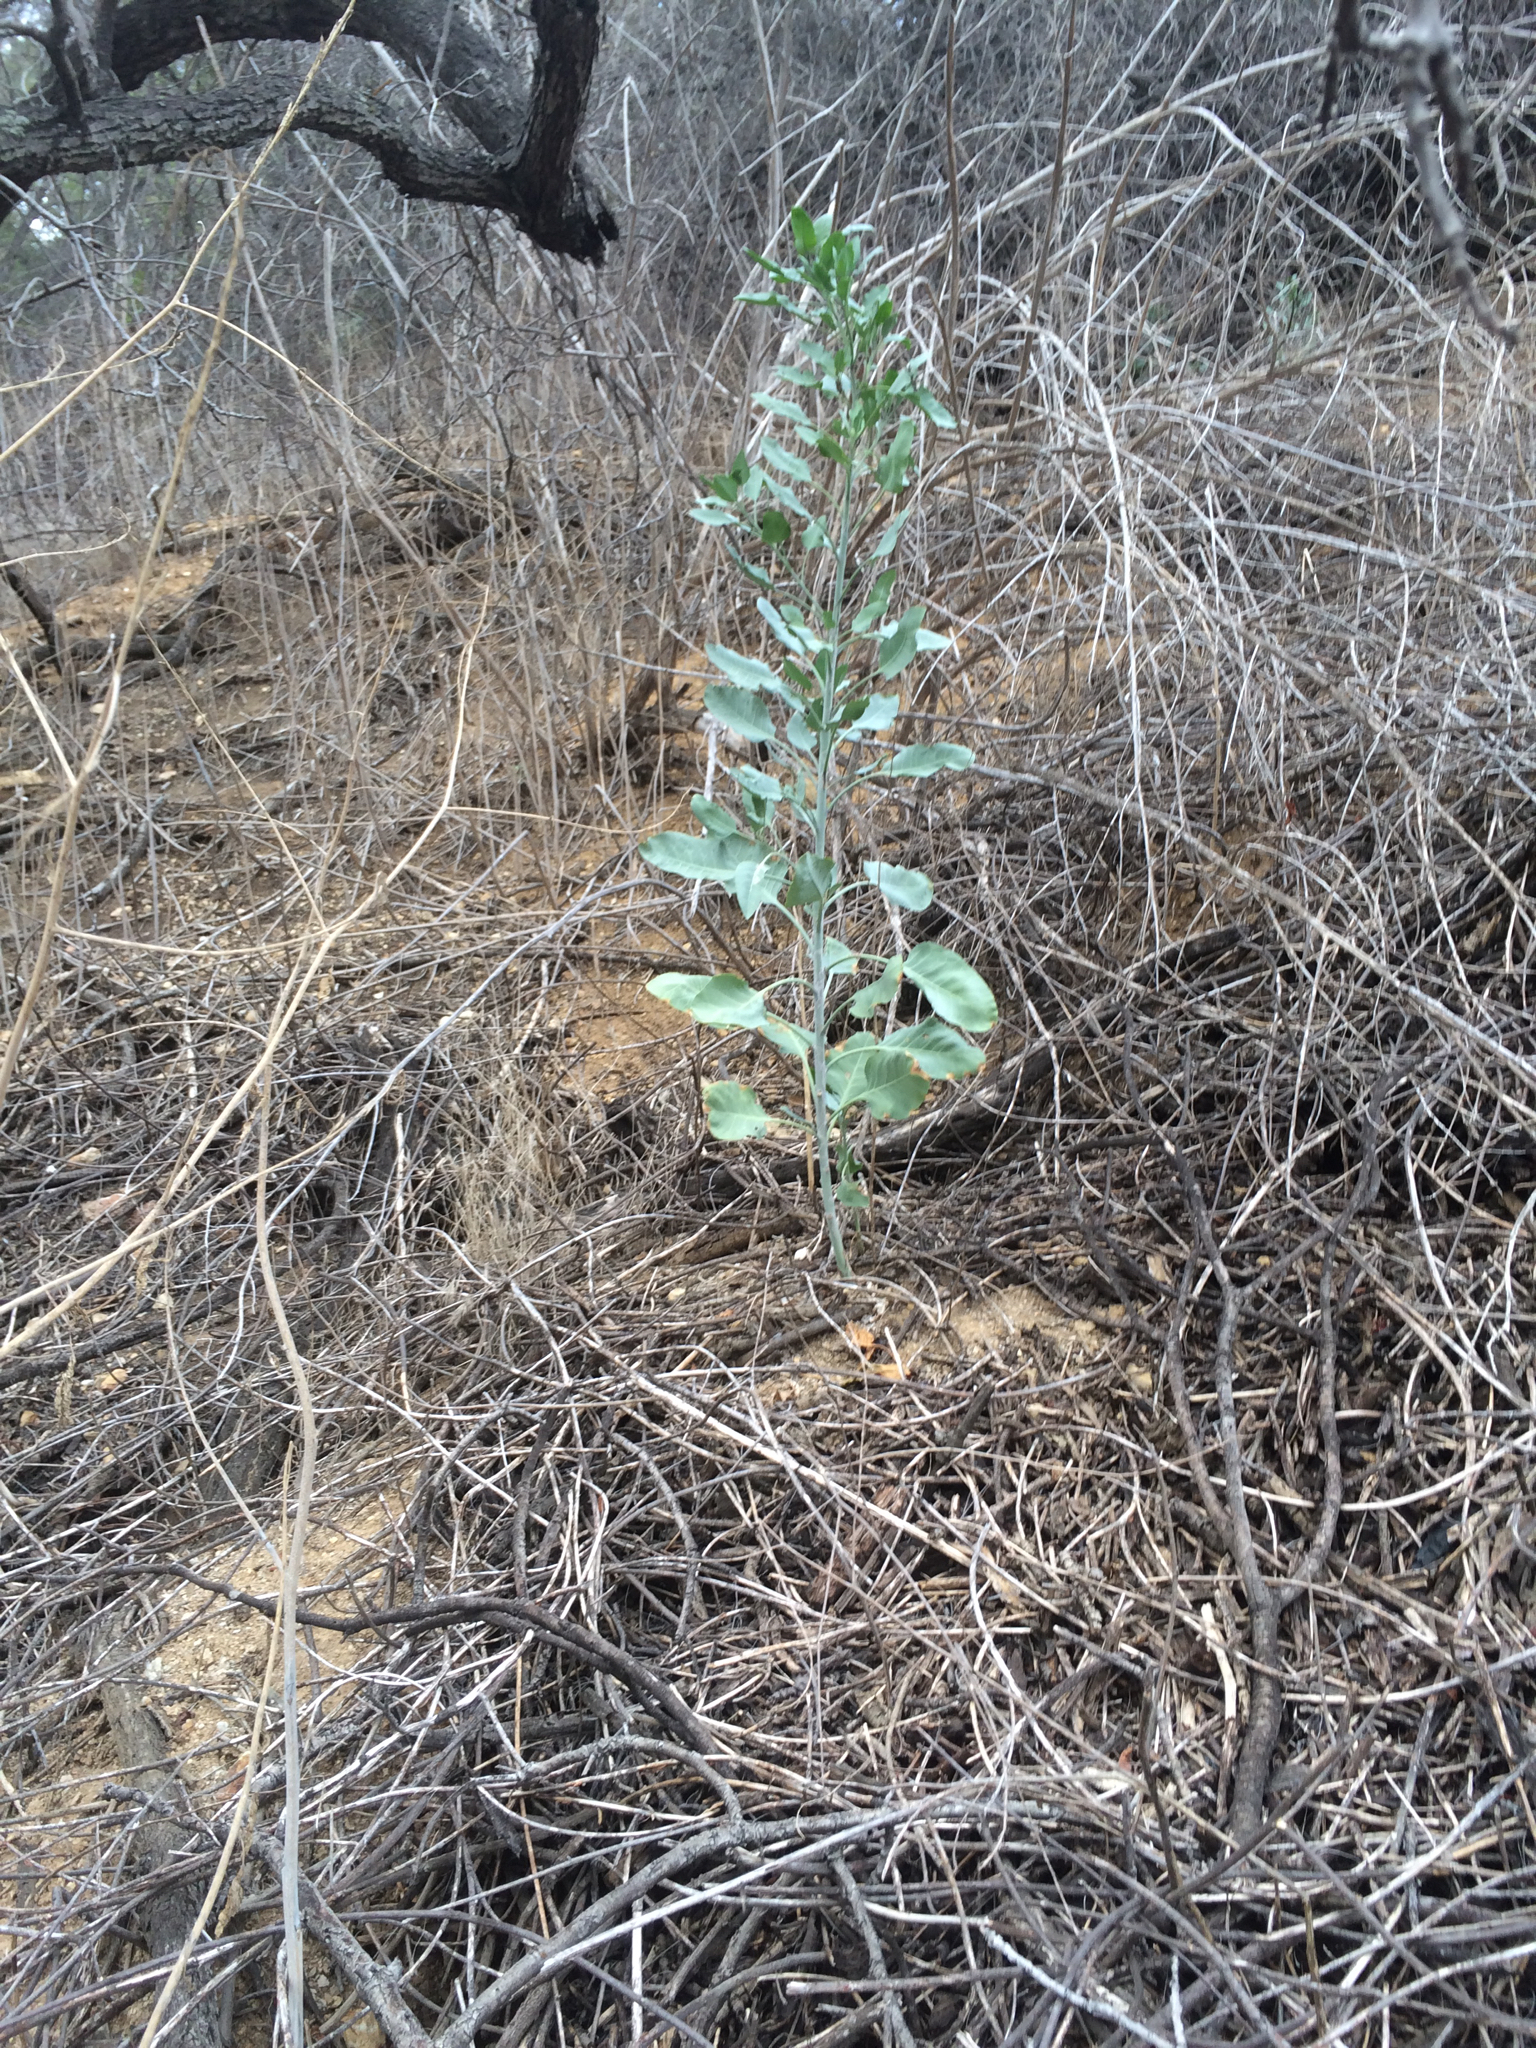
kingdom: Plantae
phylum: Tracheophyta
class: Magnoliopsida
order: Solanales
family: Solanaceae
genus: Nicotiana
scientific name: Nicotiana glauca
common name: Tree tobacco
